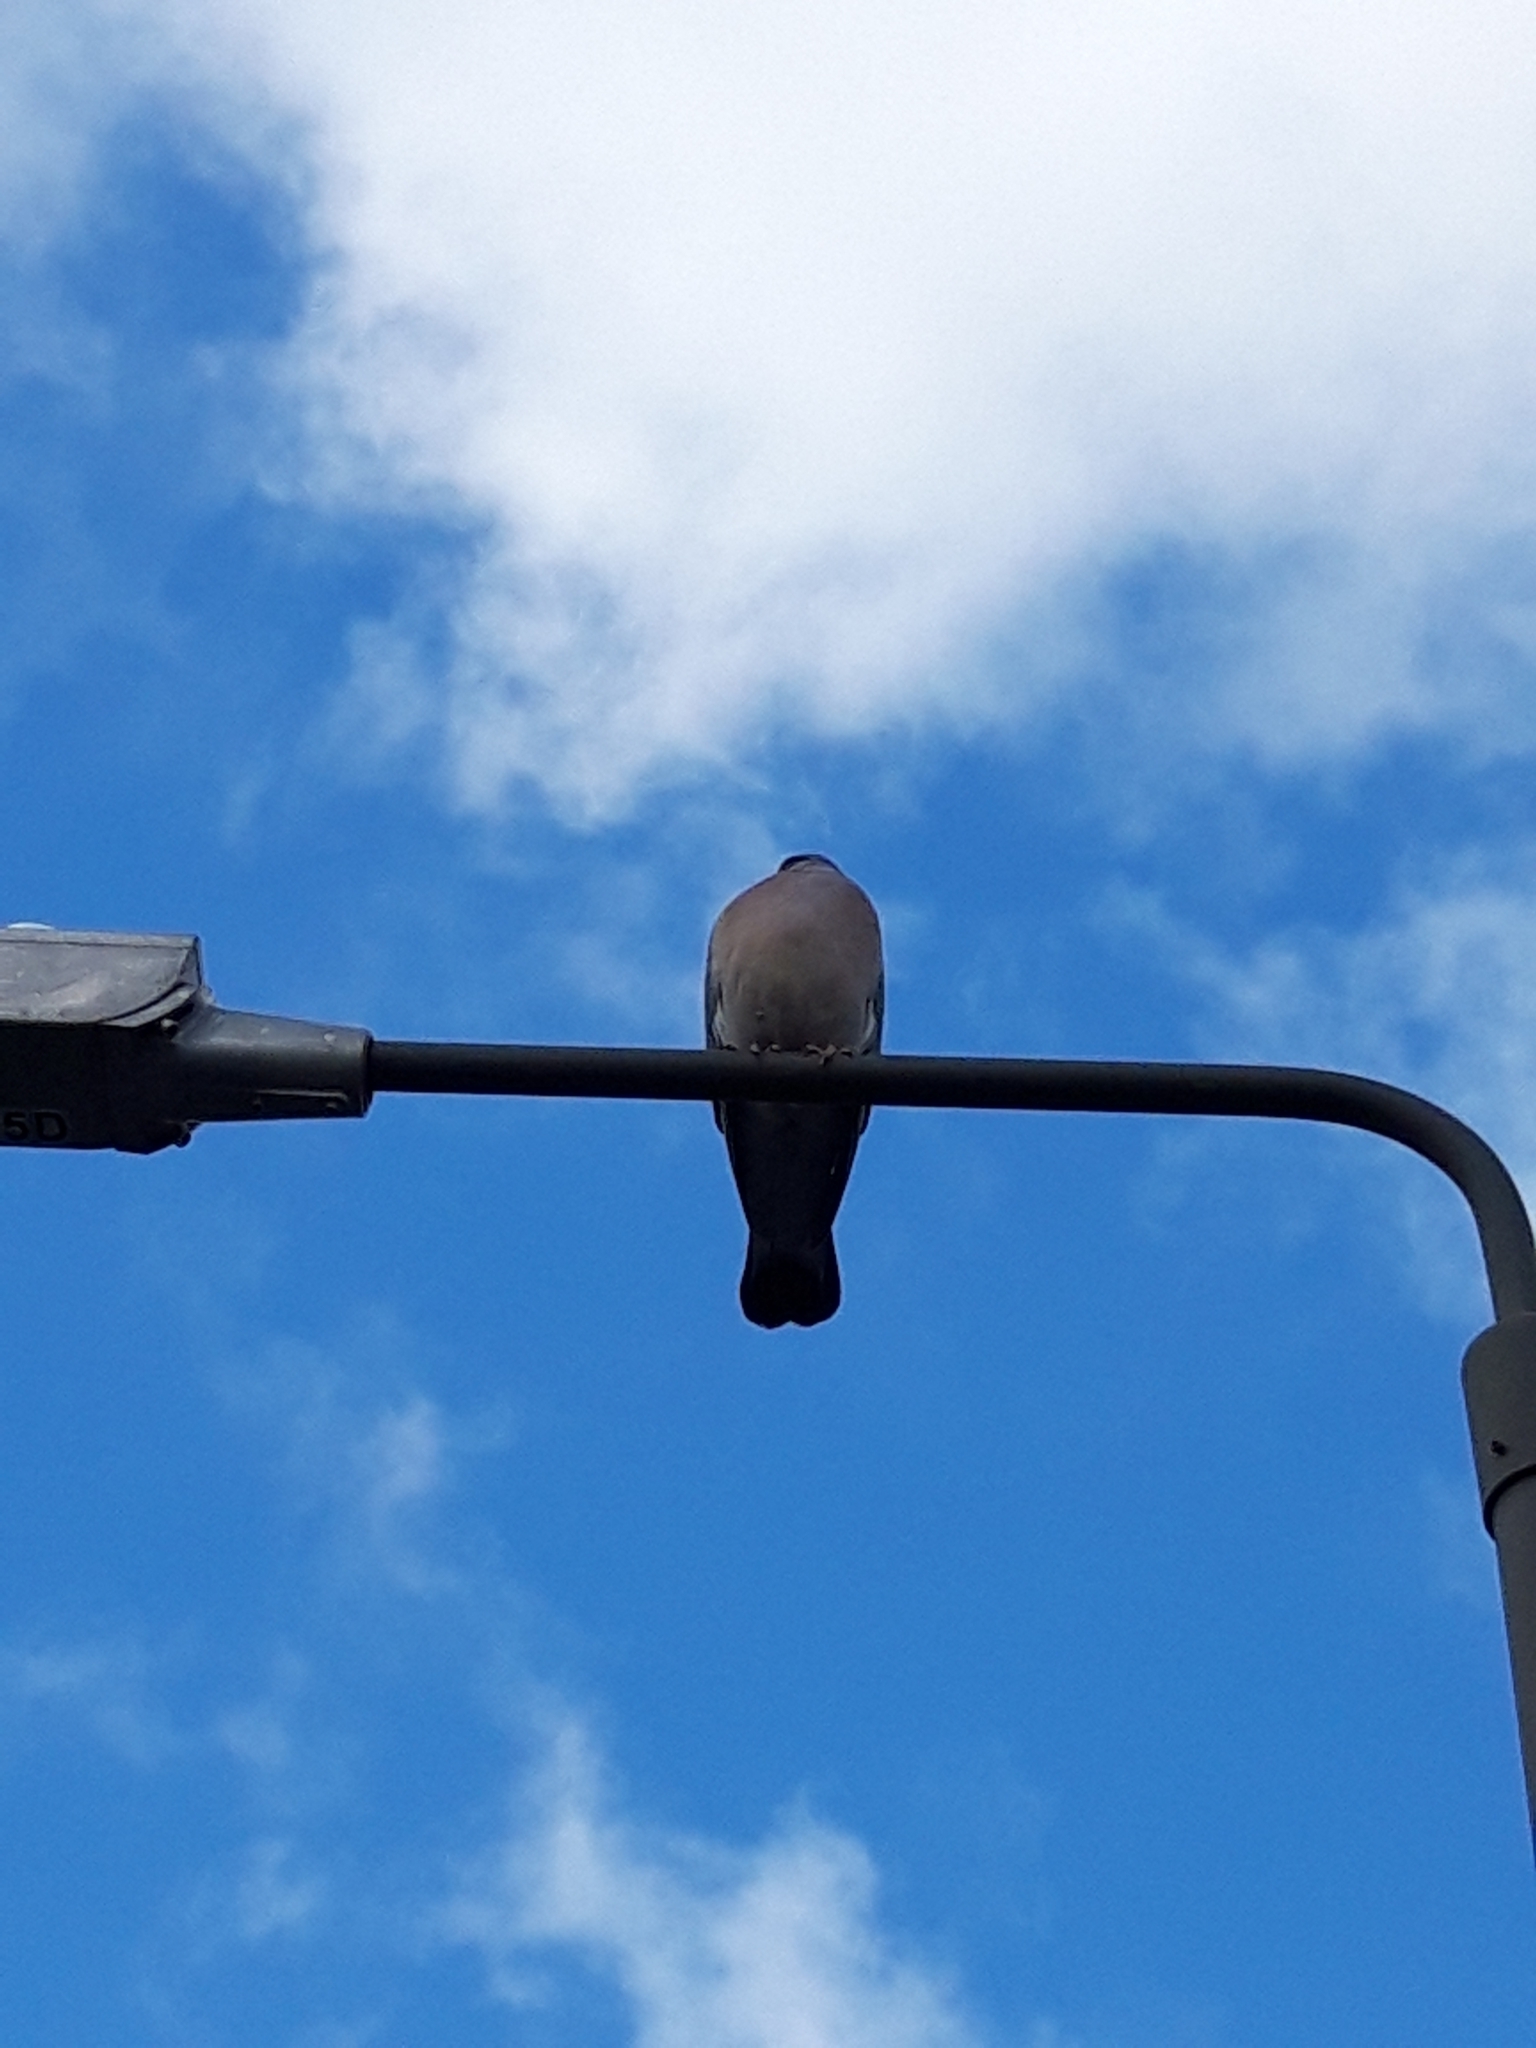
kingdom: Animalia
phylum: Chordata
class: Aves
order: Columbiformes
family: Columbidae
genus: Columba
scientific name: Columba palumbus
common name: Common wood pigeon
